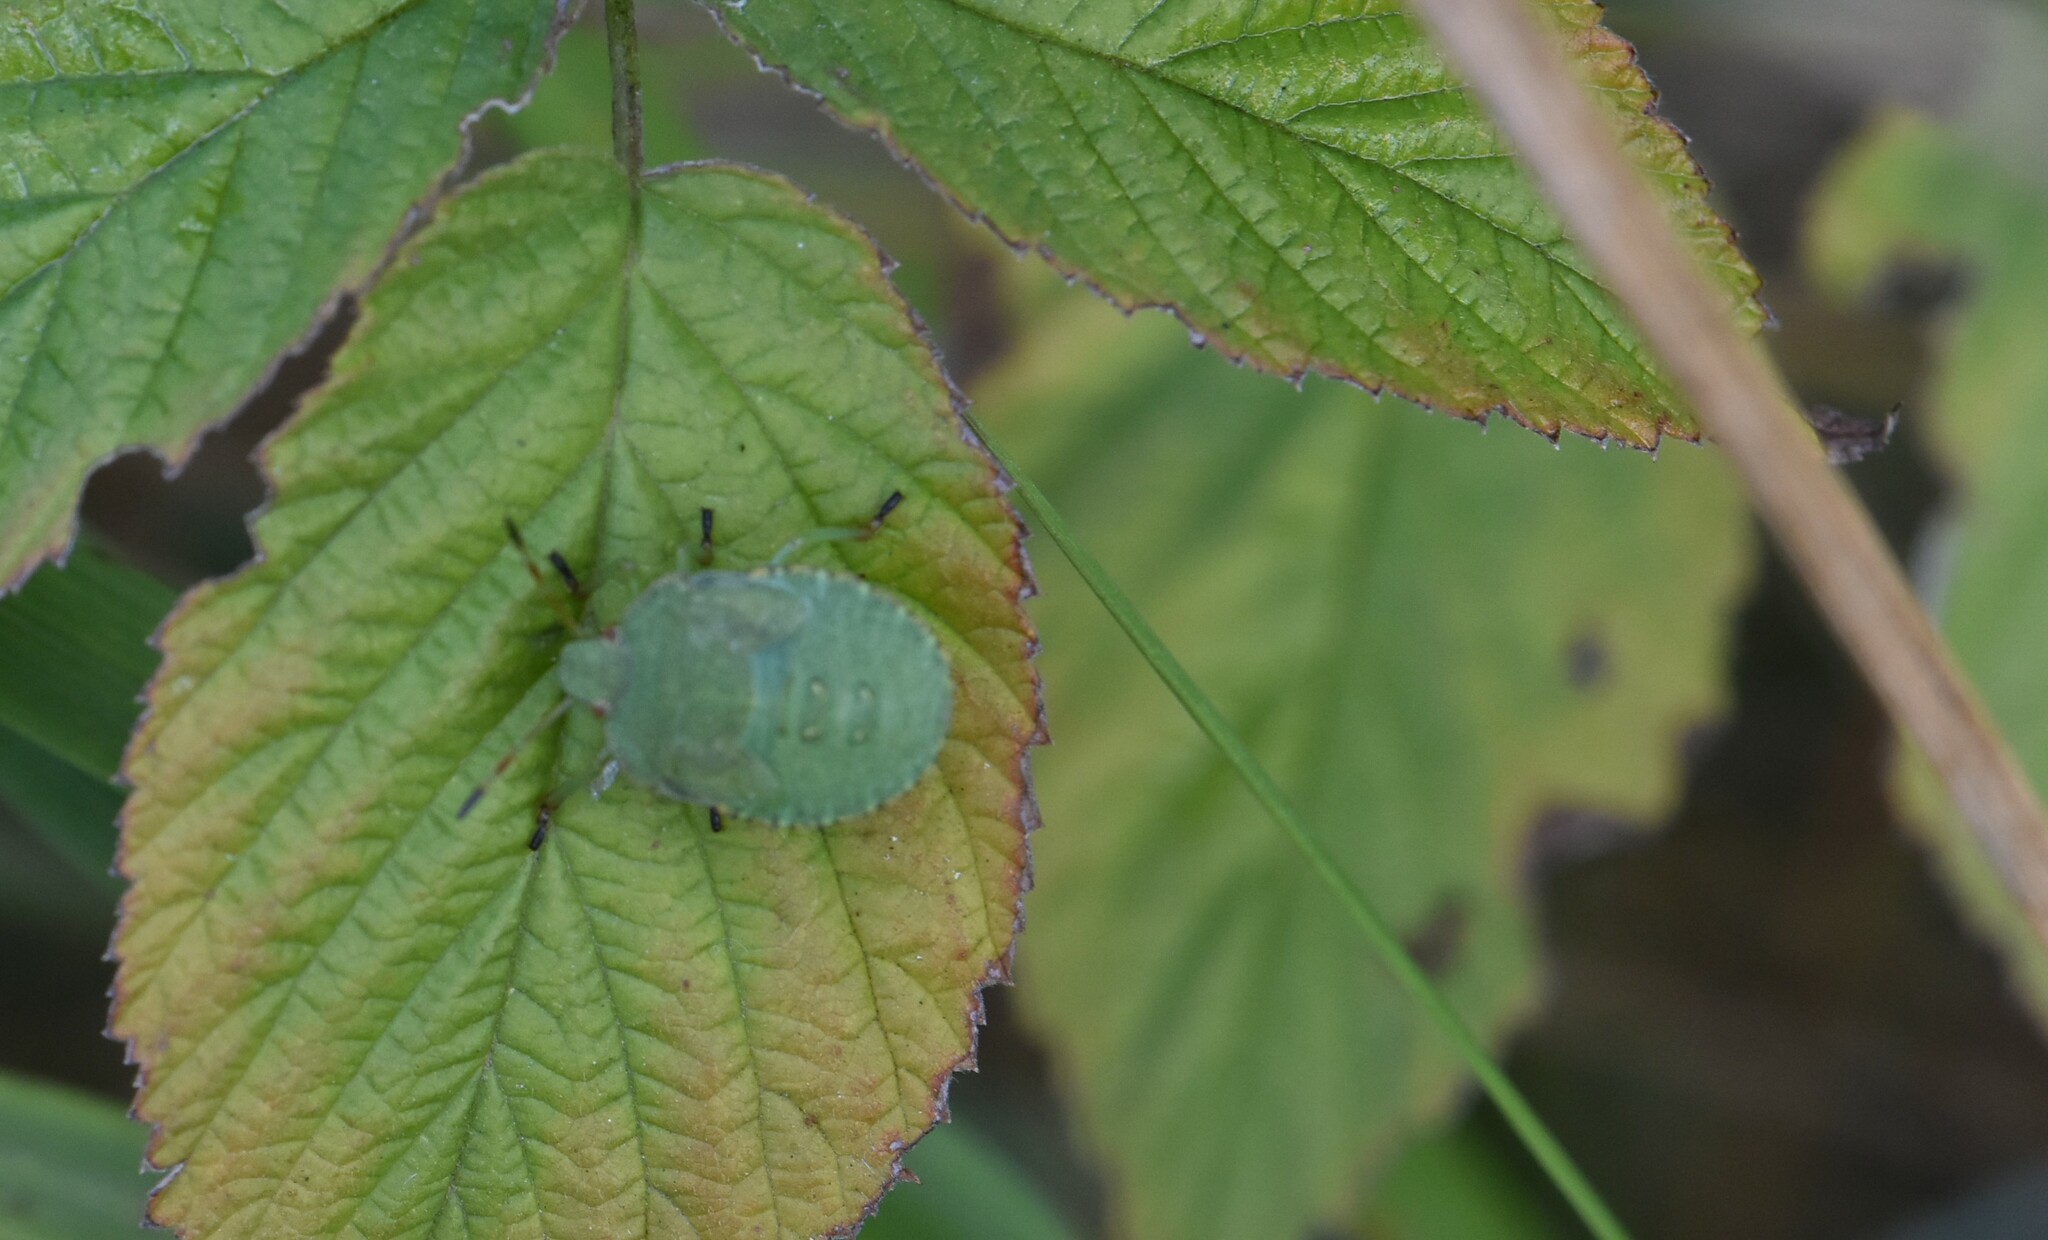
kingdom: Animalia
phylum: Arthropoda
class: Insecta
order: Hemiptera
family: Pentatomidae
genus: Palomena
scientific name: Palomena prasina
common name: Green shieldbug
